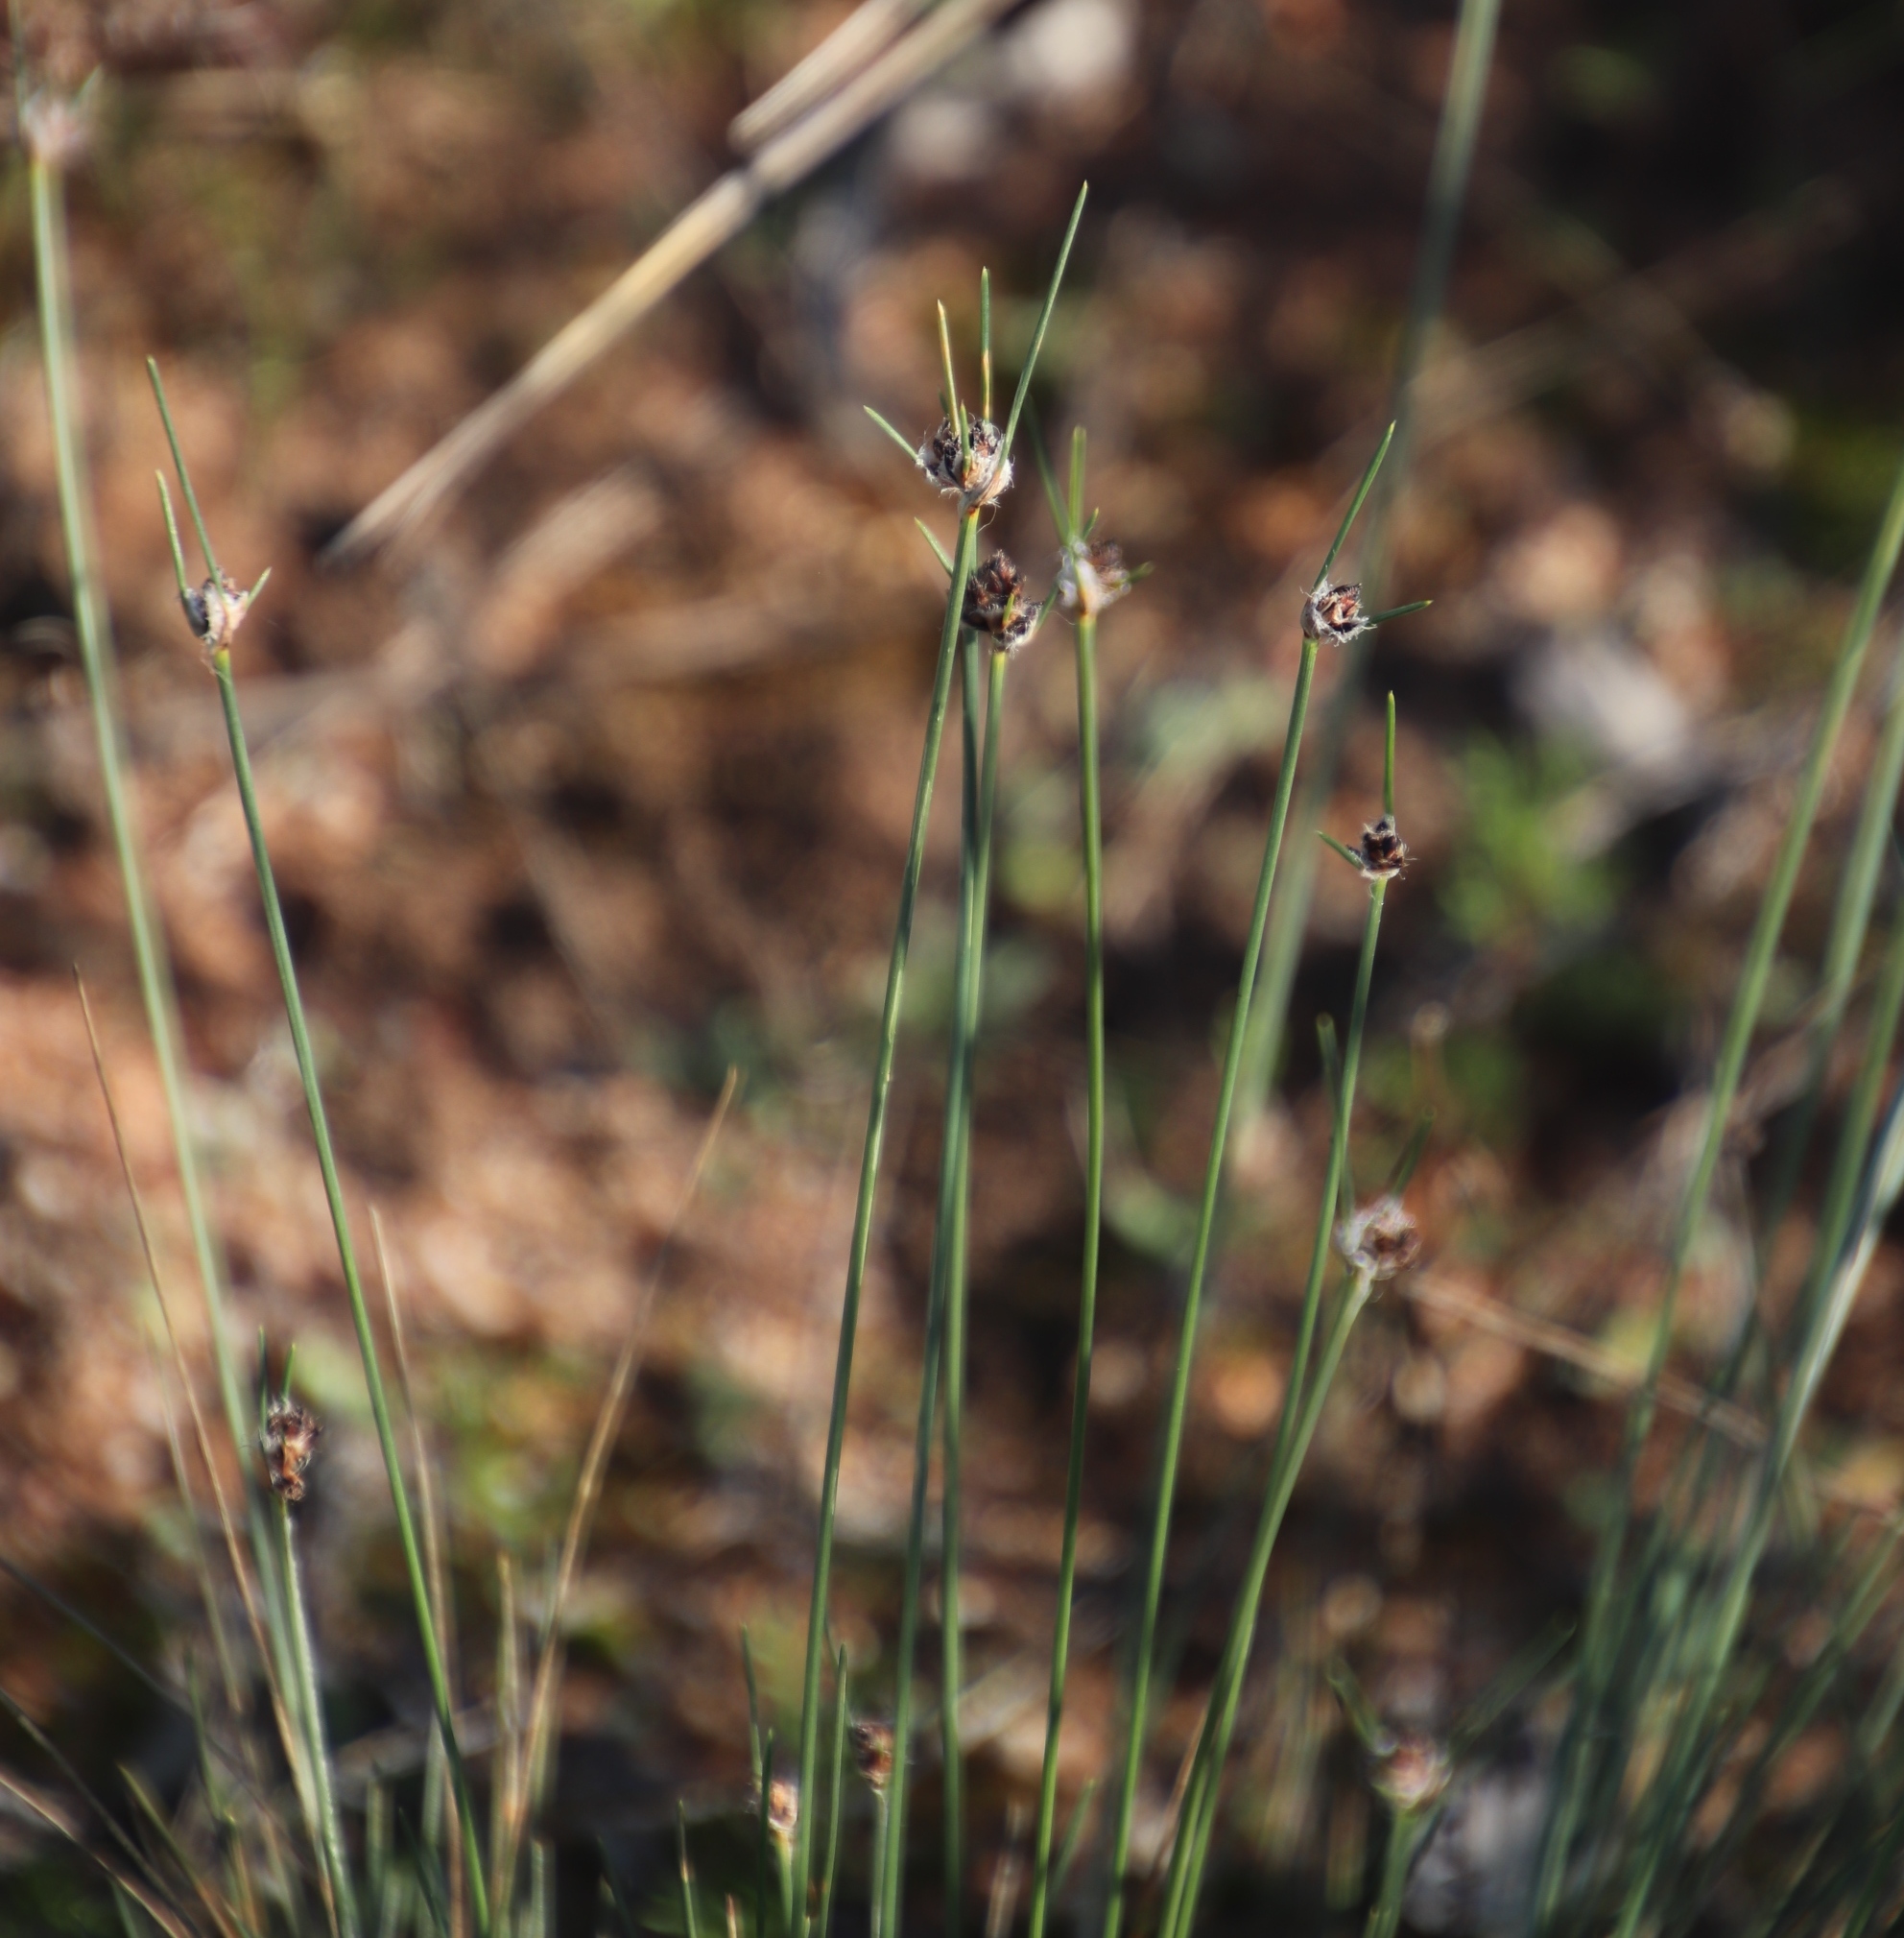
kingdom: Plantae
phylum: Tracheophyta
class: Liliopsida
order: Poales
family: Cyperaceae
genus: Ficinia
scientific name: Ficinia paradoxa
